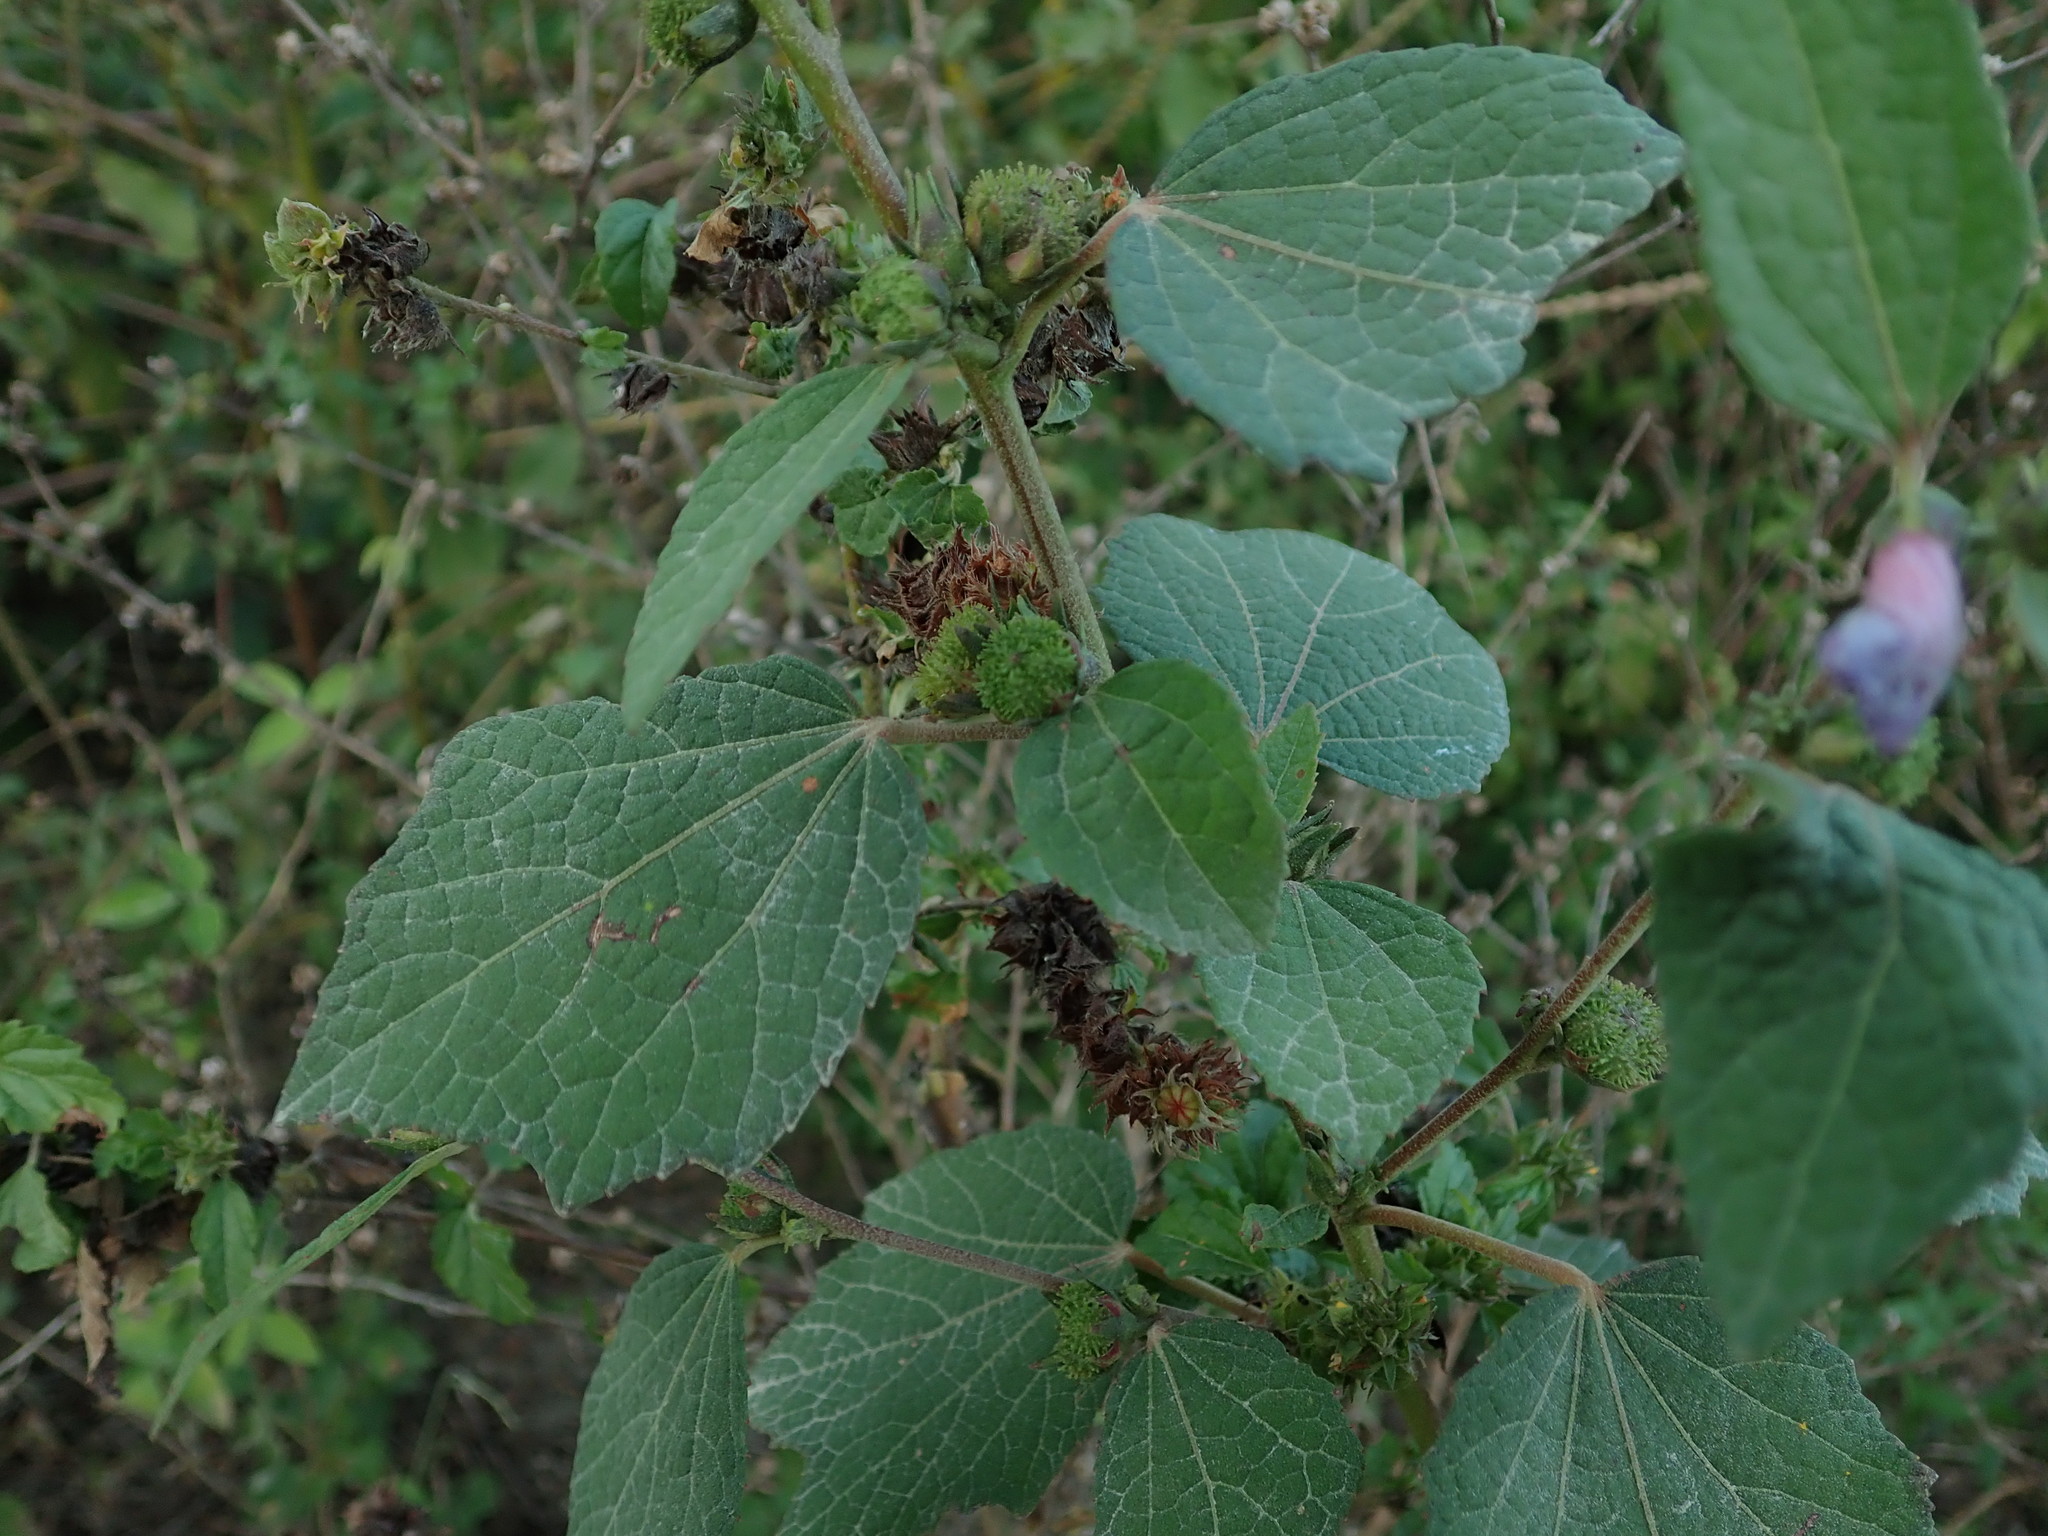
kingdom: Plantae
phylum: Tracheophyta
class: Magnoliopsida
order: Malvales
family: Malvaceae
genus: Urena
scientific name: Urena lobata
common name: Caesarweed
